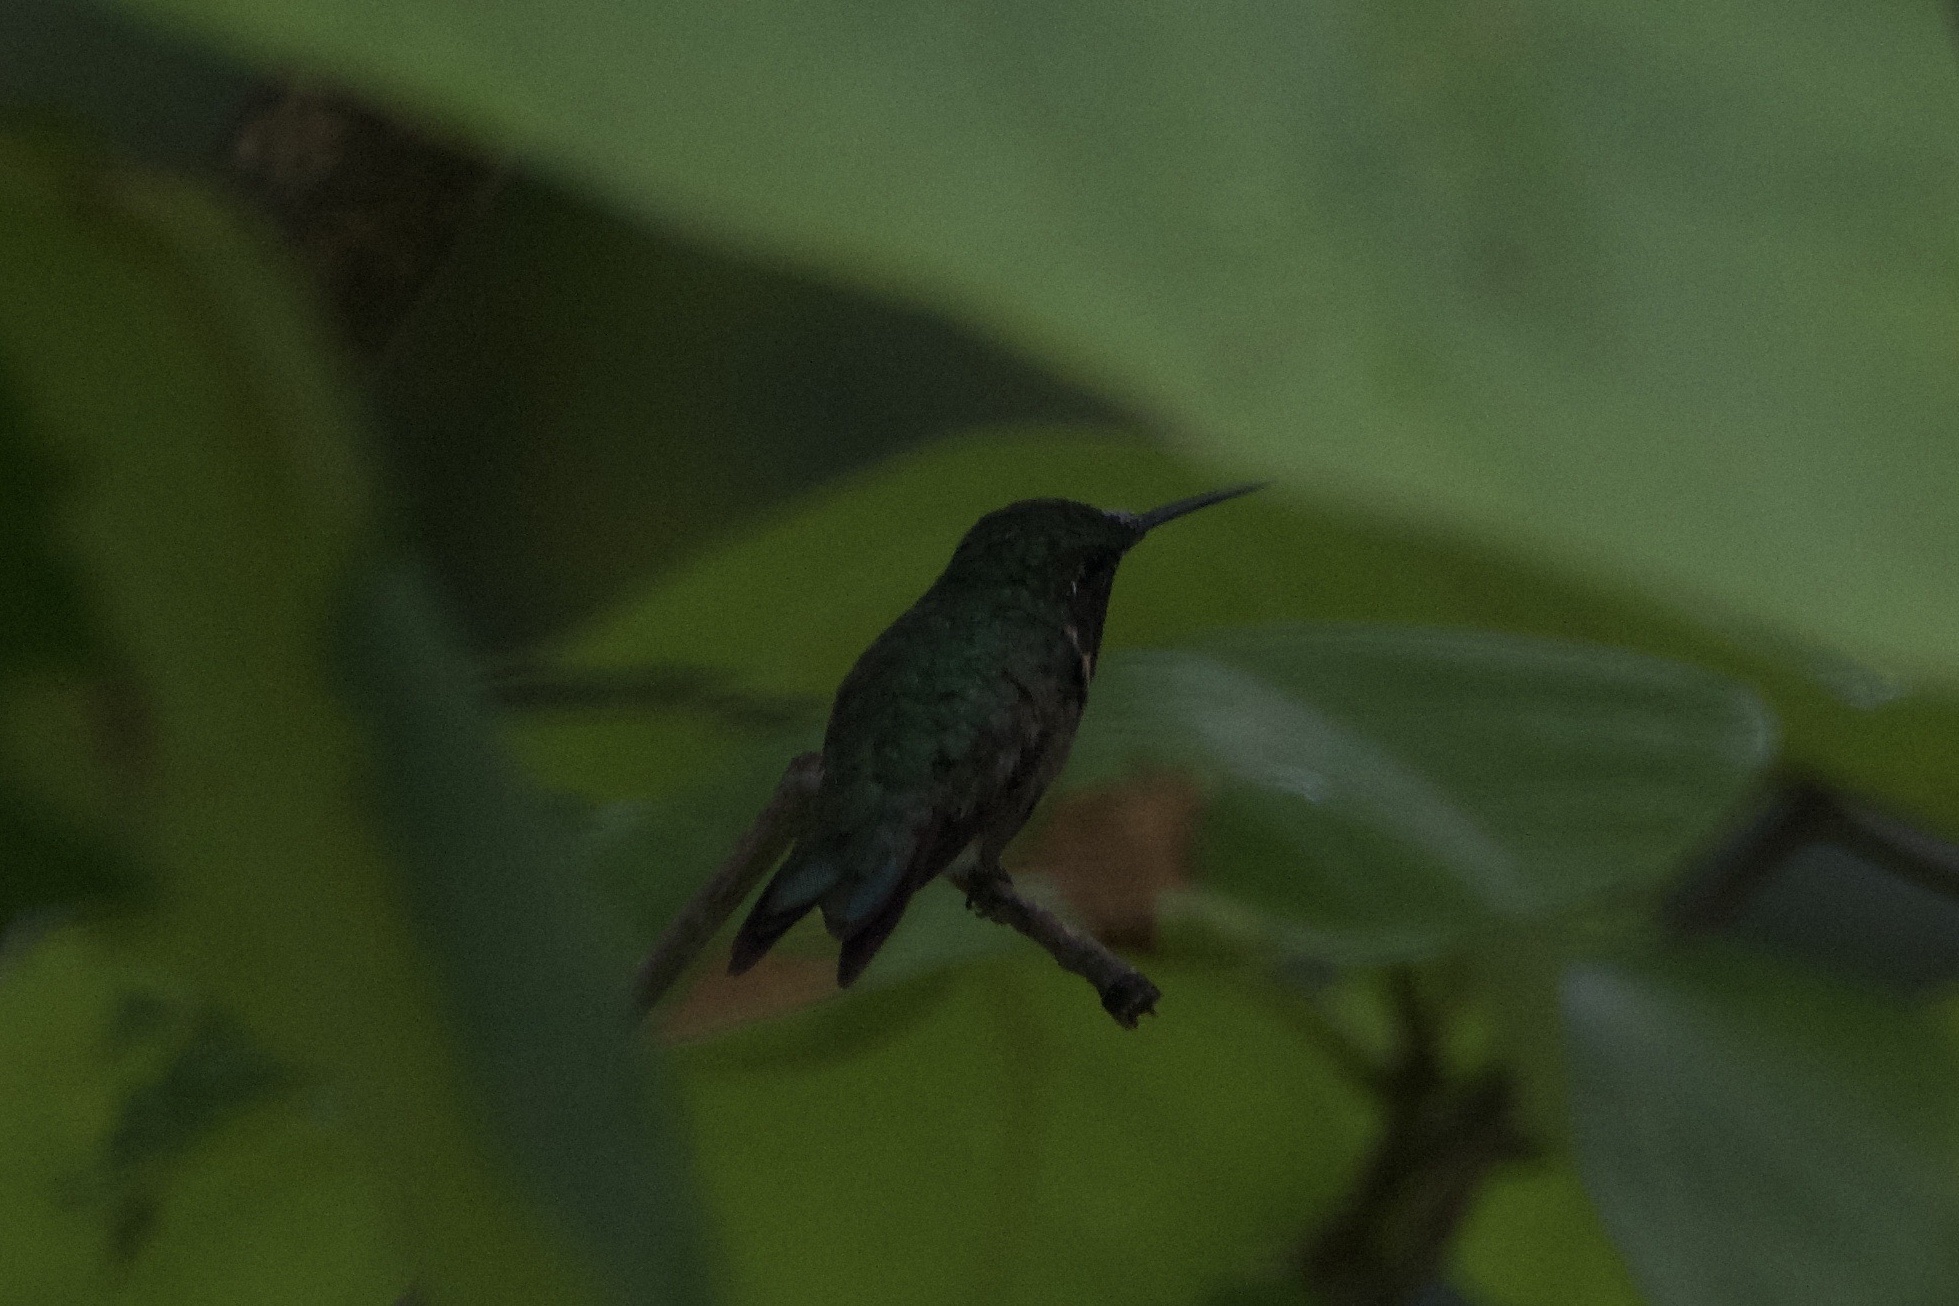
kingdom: Animalia
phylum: Chordata
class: Aves
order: Apodiformes
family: Trochilidae
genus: Archilochus
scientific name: Archilochus colubris
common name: Ruby-throated hummingbird
